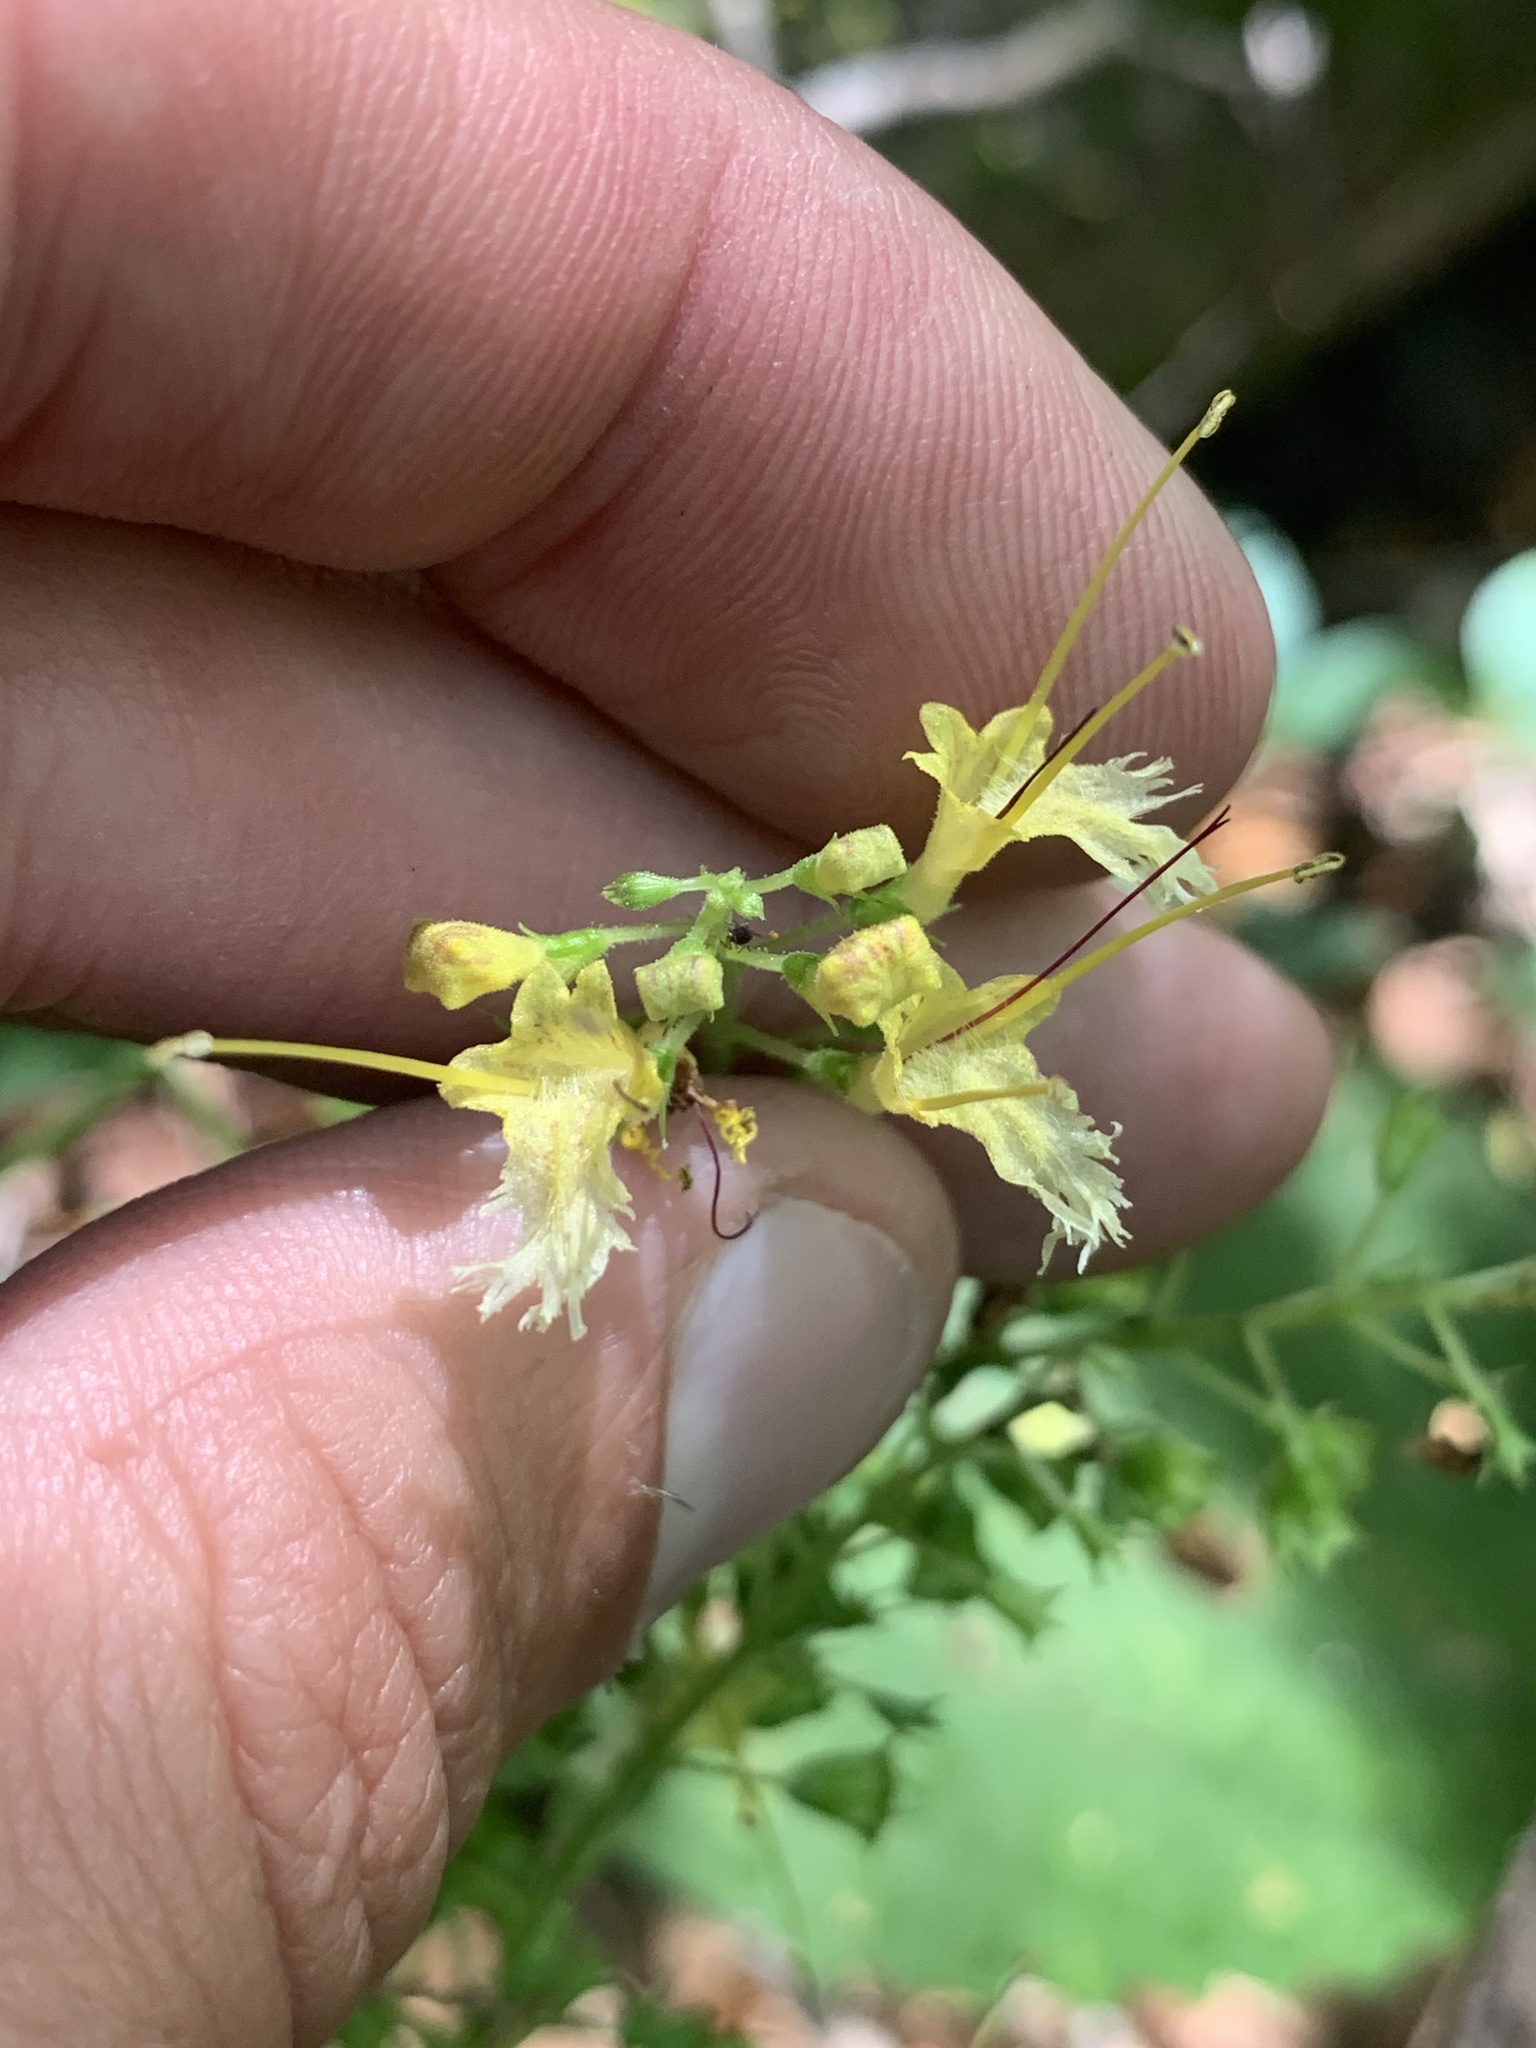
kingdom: Plantae
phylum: Tracheophyta
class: Magnoliopsida
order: Lamiales
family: Lamiaceae
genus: Collinsonia
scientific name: Collinsonia canadensis
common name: Northern horsebalm
